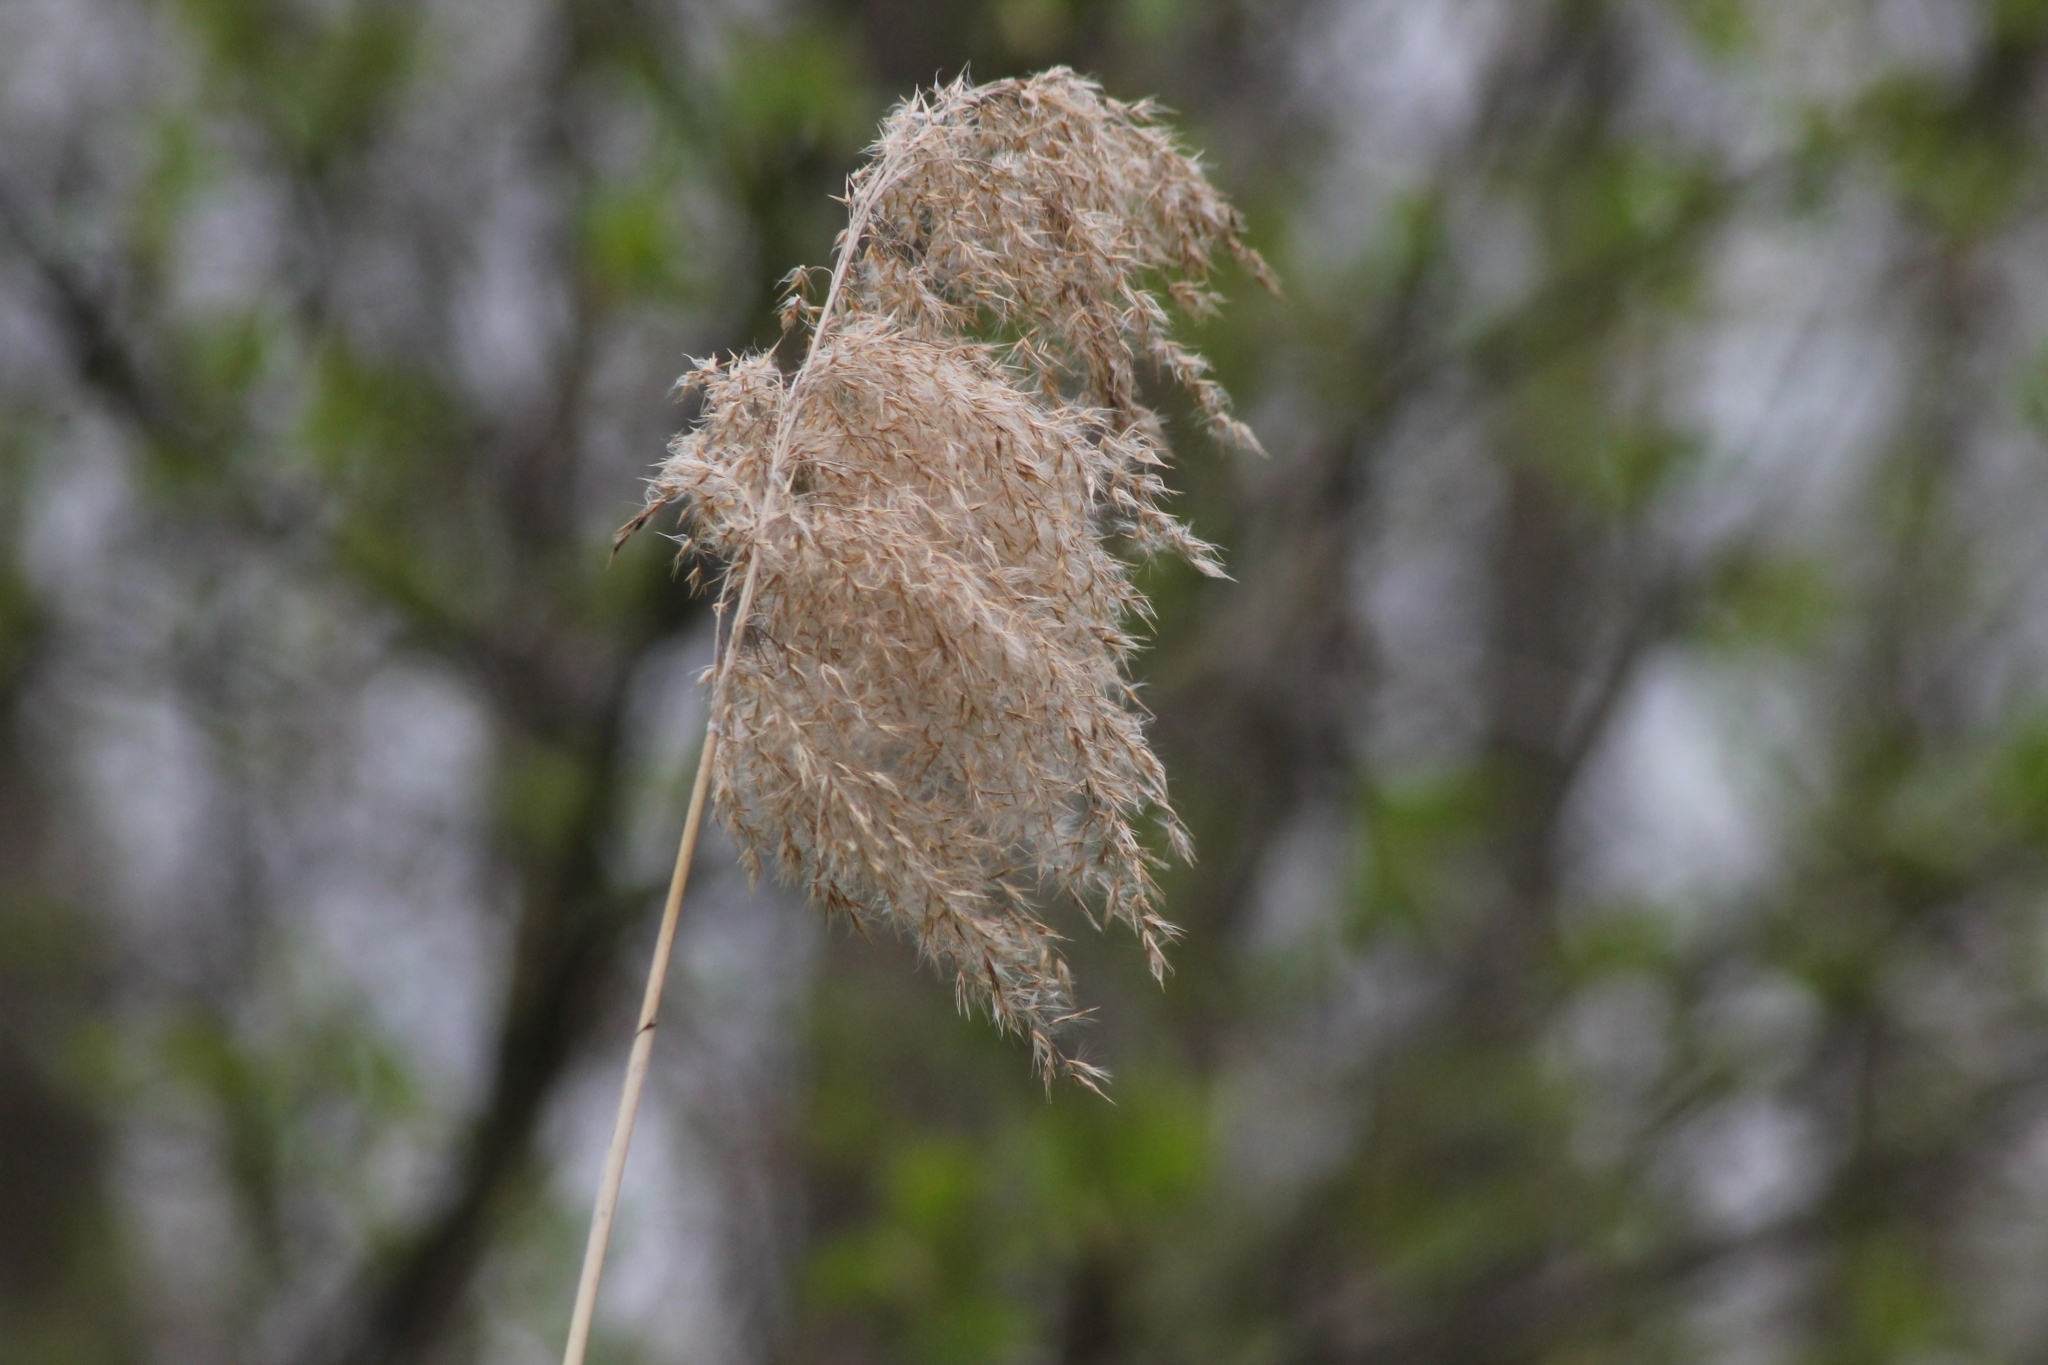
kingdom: Plantae
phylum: Tracheophyta
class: Liliopsida
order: Poales
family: Poaceae
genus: Phragmites
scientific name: Phragmites australis
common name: Common reed
